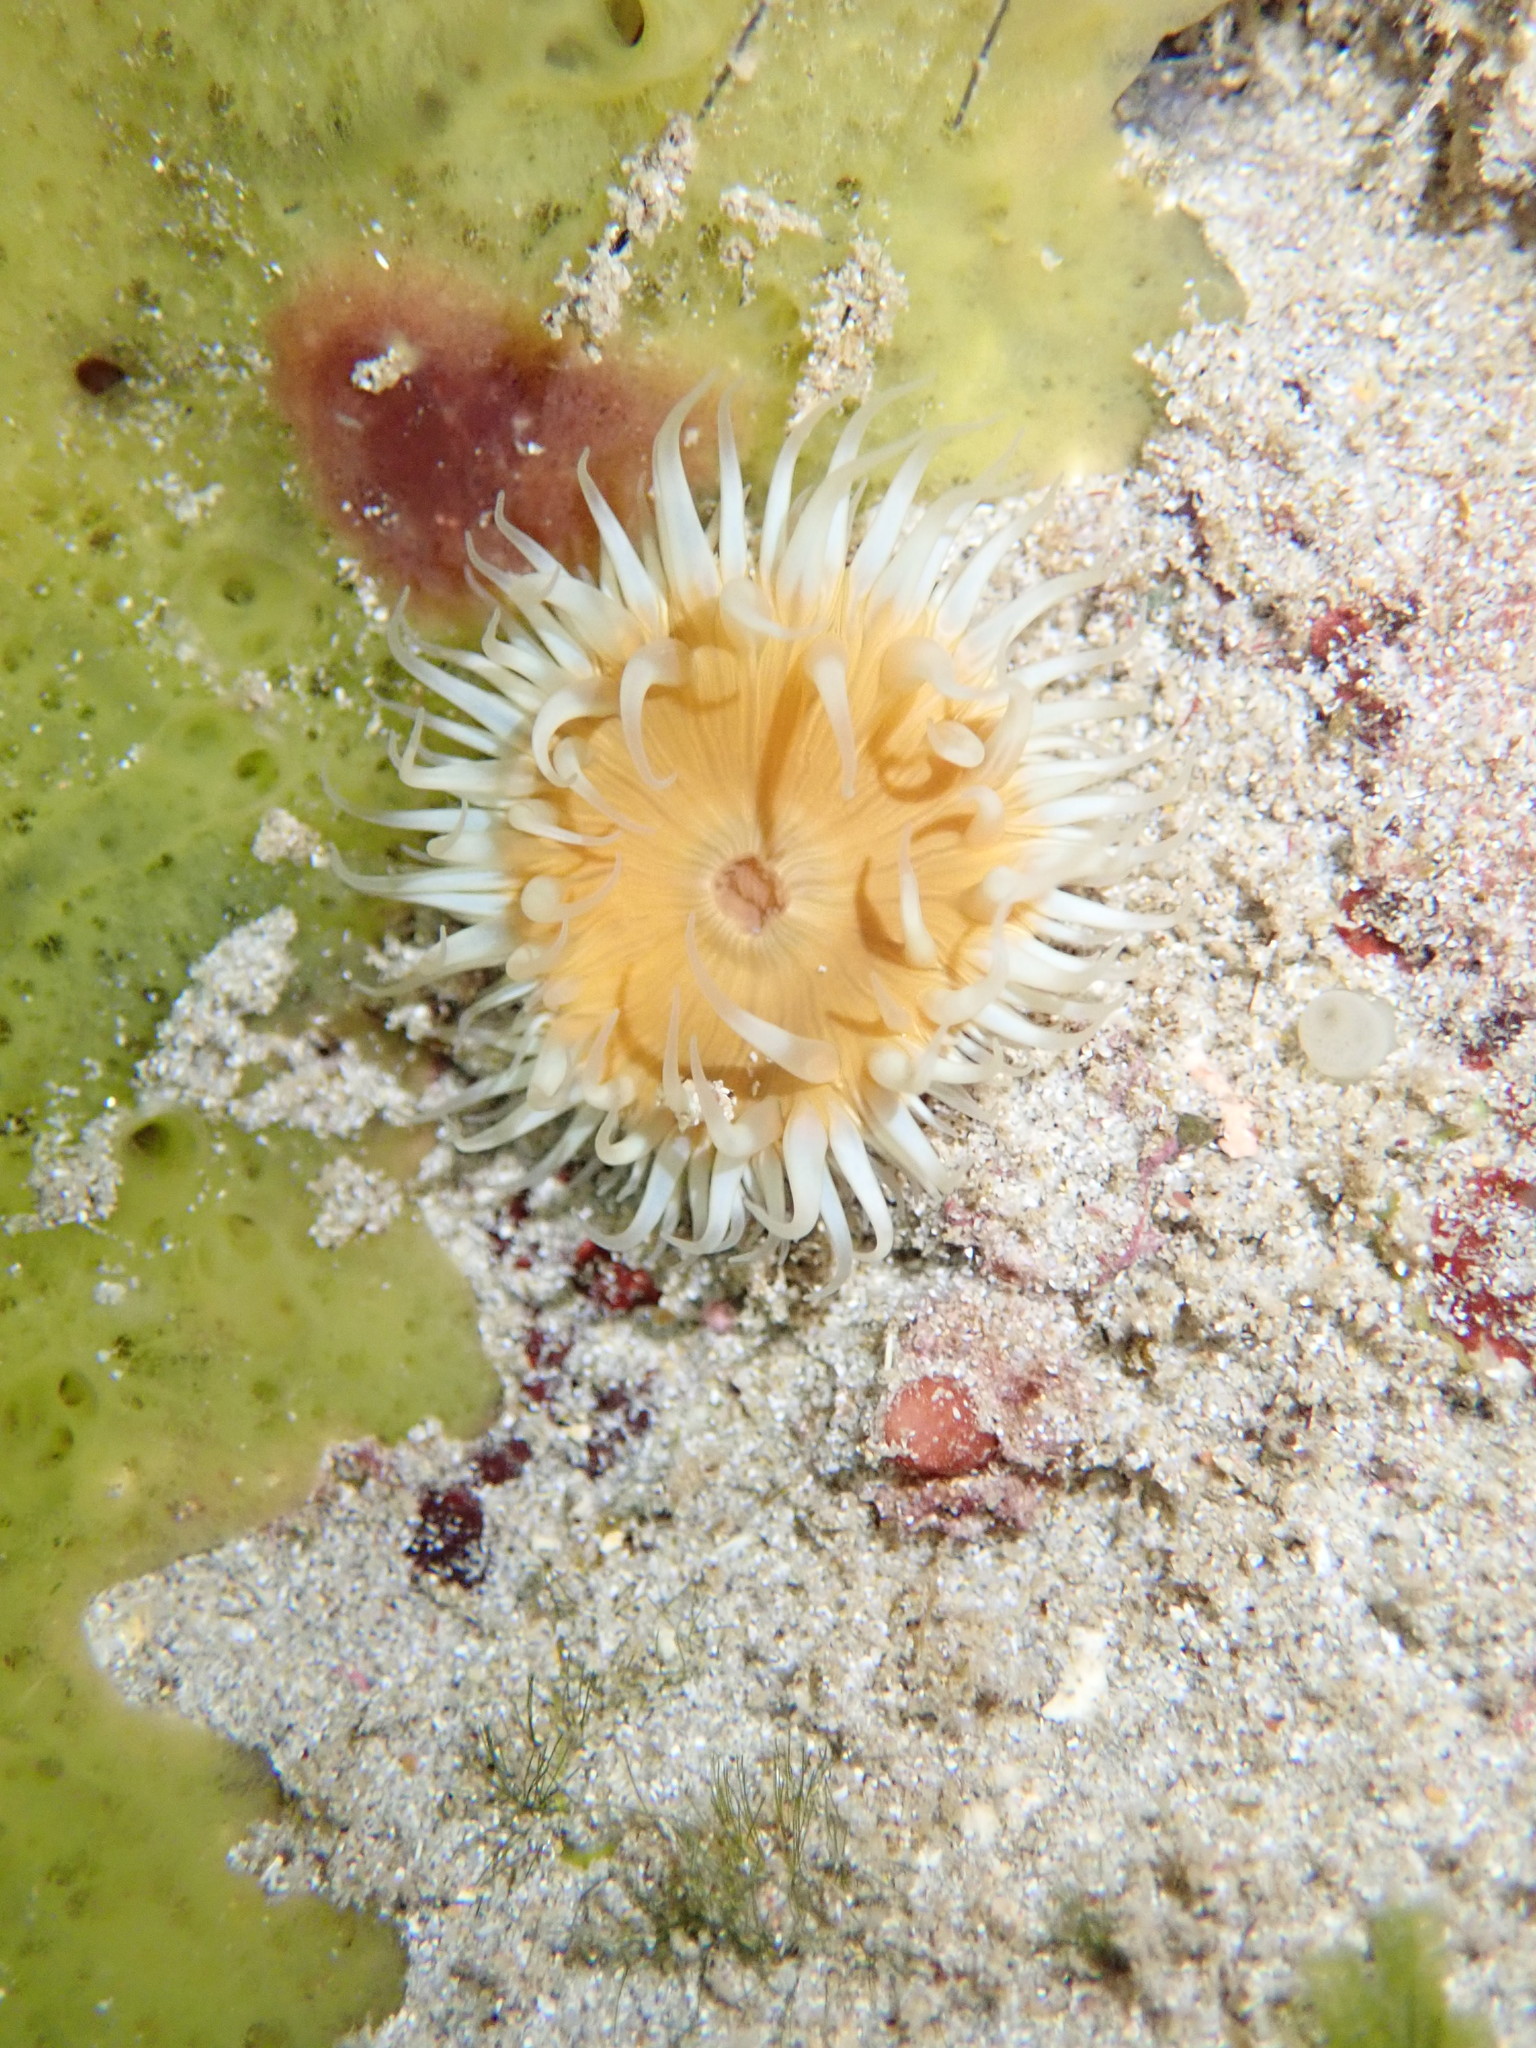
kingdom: Animalia
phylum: Cnidaria
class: Anthozoa
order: Actiniaria
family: Sagartiidae
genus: Anthothoe
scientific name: Anthothoe albocincta
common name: Orange striped anemone
